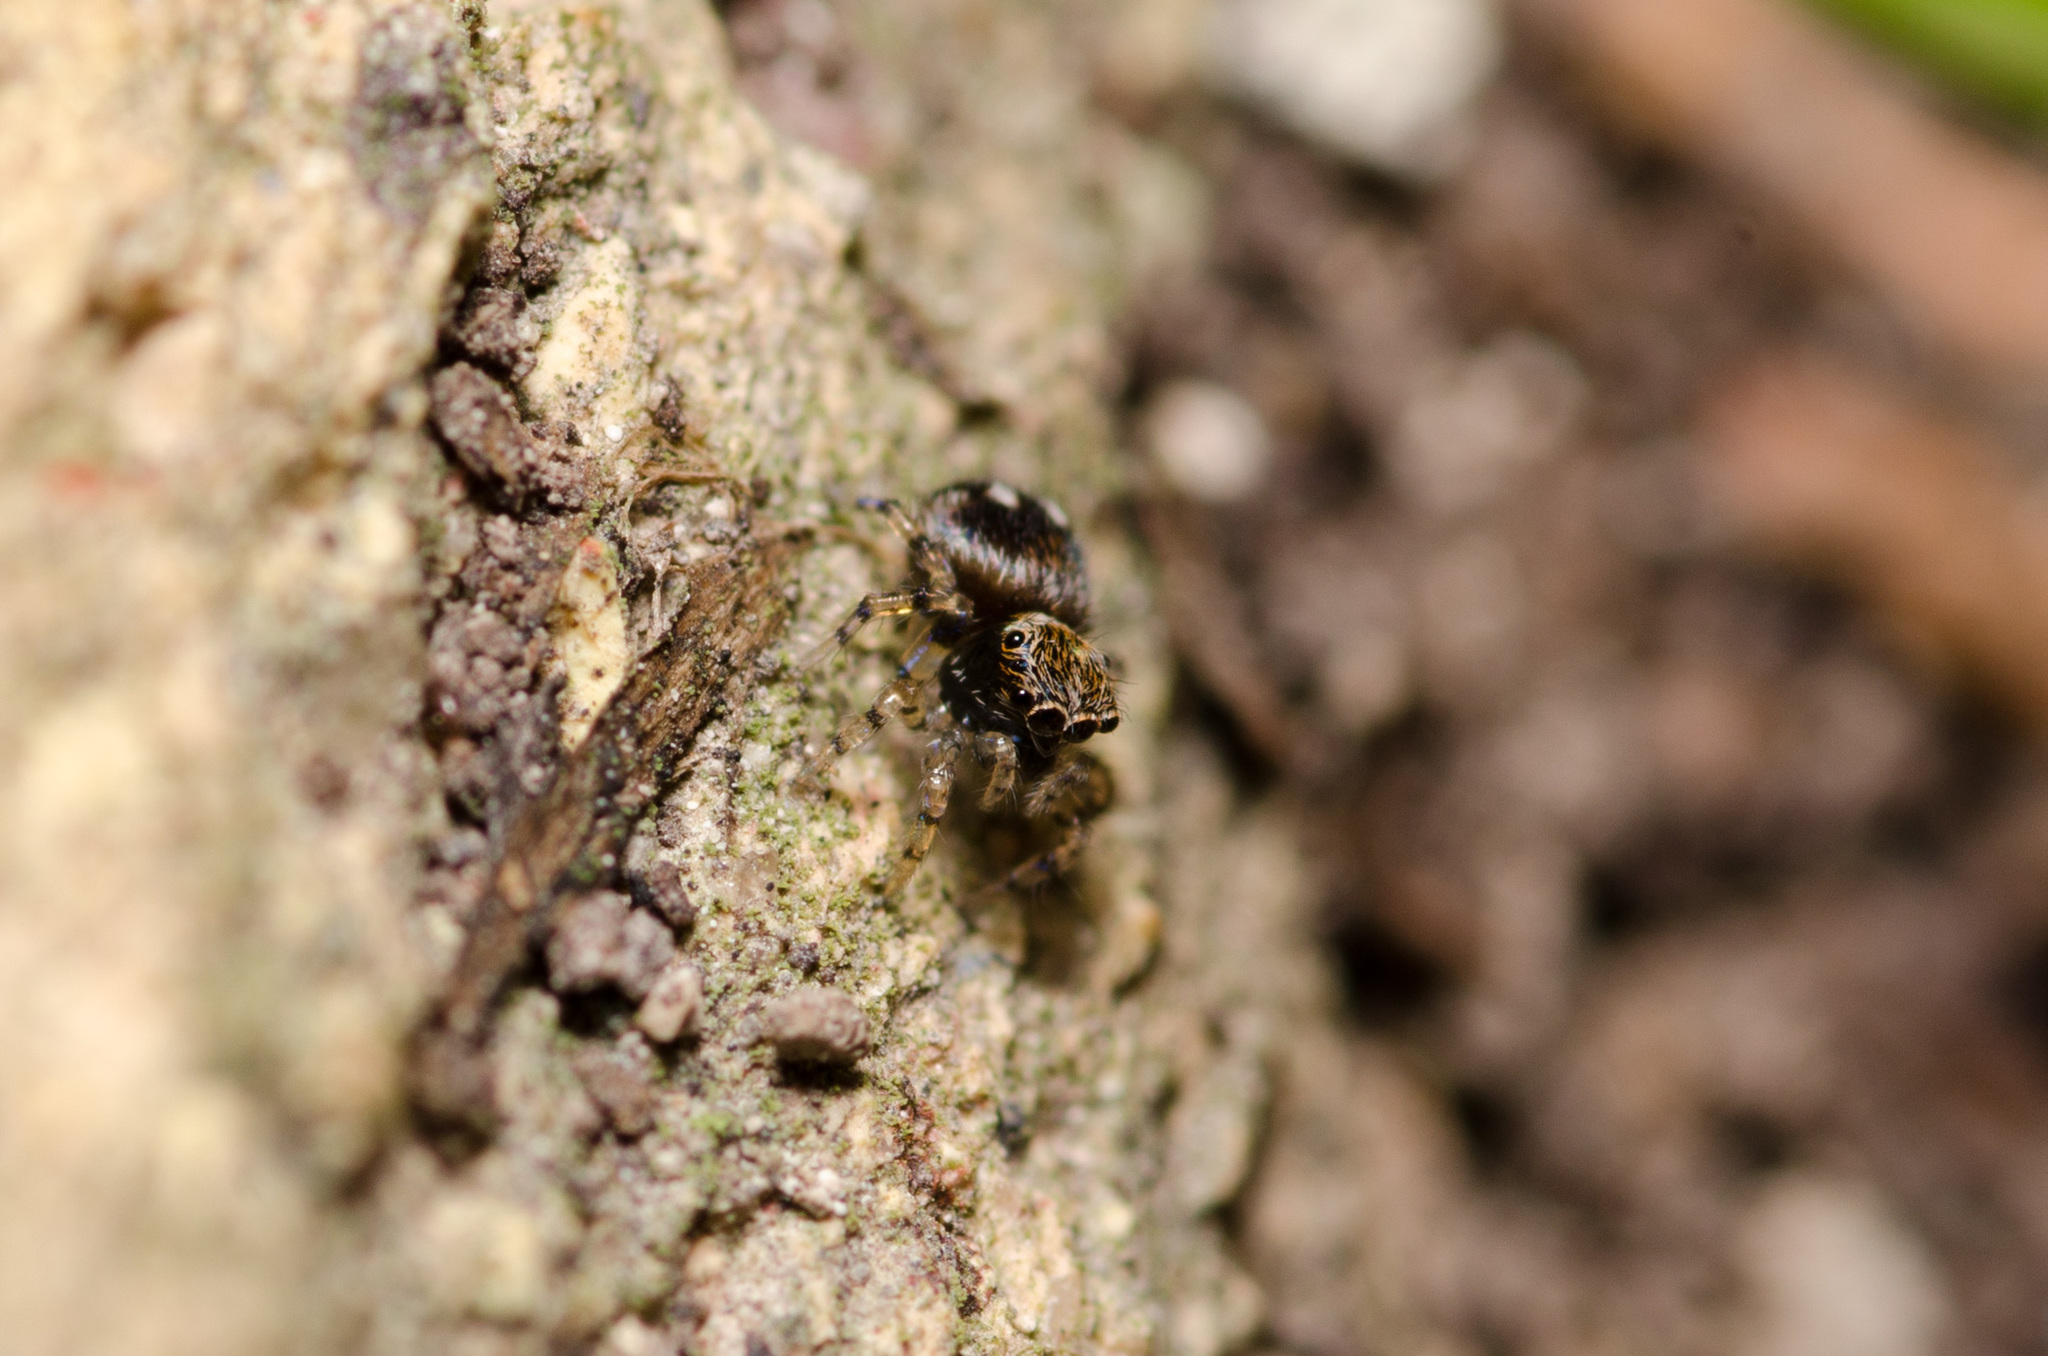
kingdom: Animalia
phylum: Arthropoda
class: Arachnida
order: Araneae
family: Salticidae
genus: Naphrys
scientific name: Naphrys acerba
